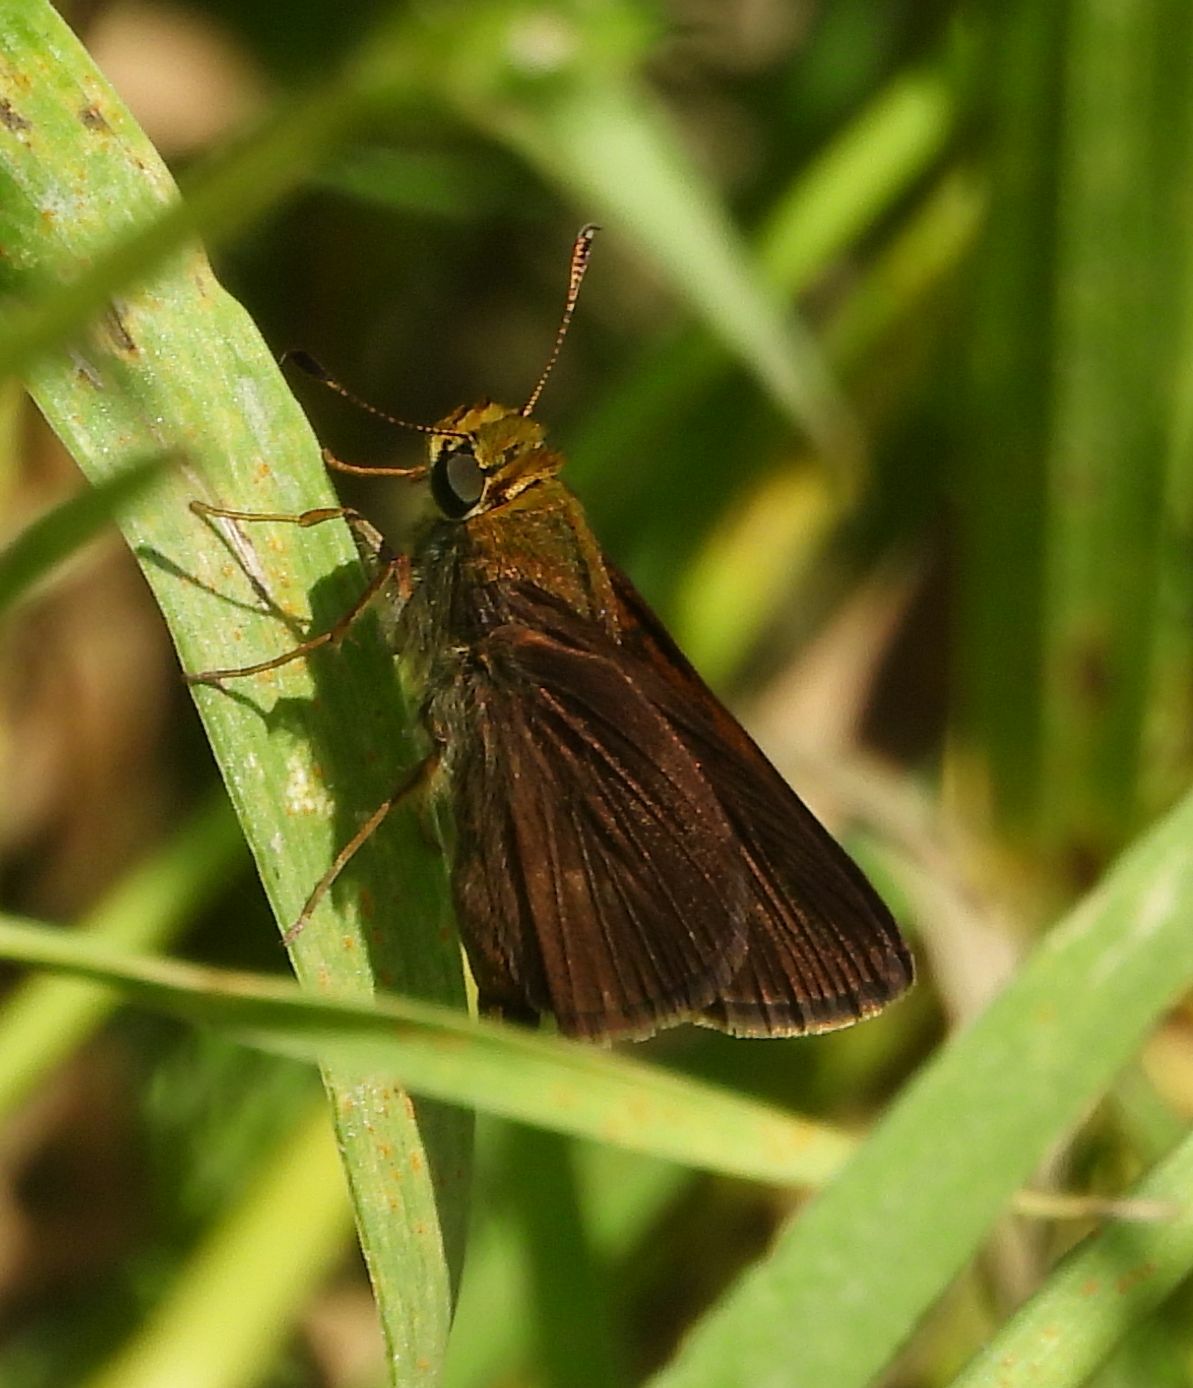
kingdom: Animalia
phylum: Arthropoda
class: Insecta
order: Lepidoptera
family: Hesperiidae
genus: Euphyes
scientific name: Euphyes vestris
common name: Dun skipper
